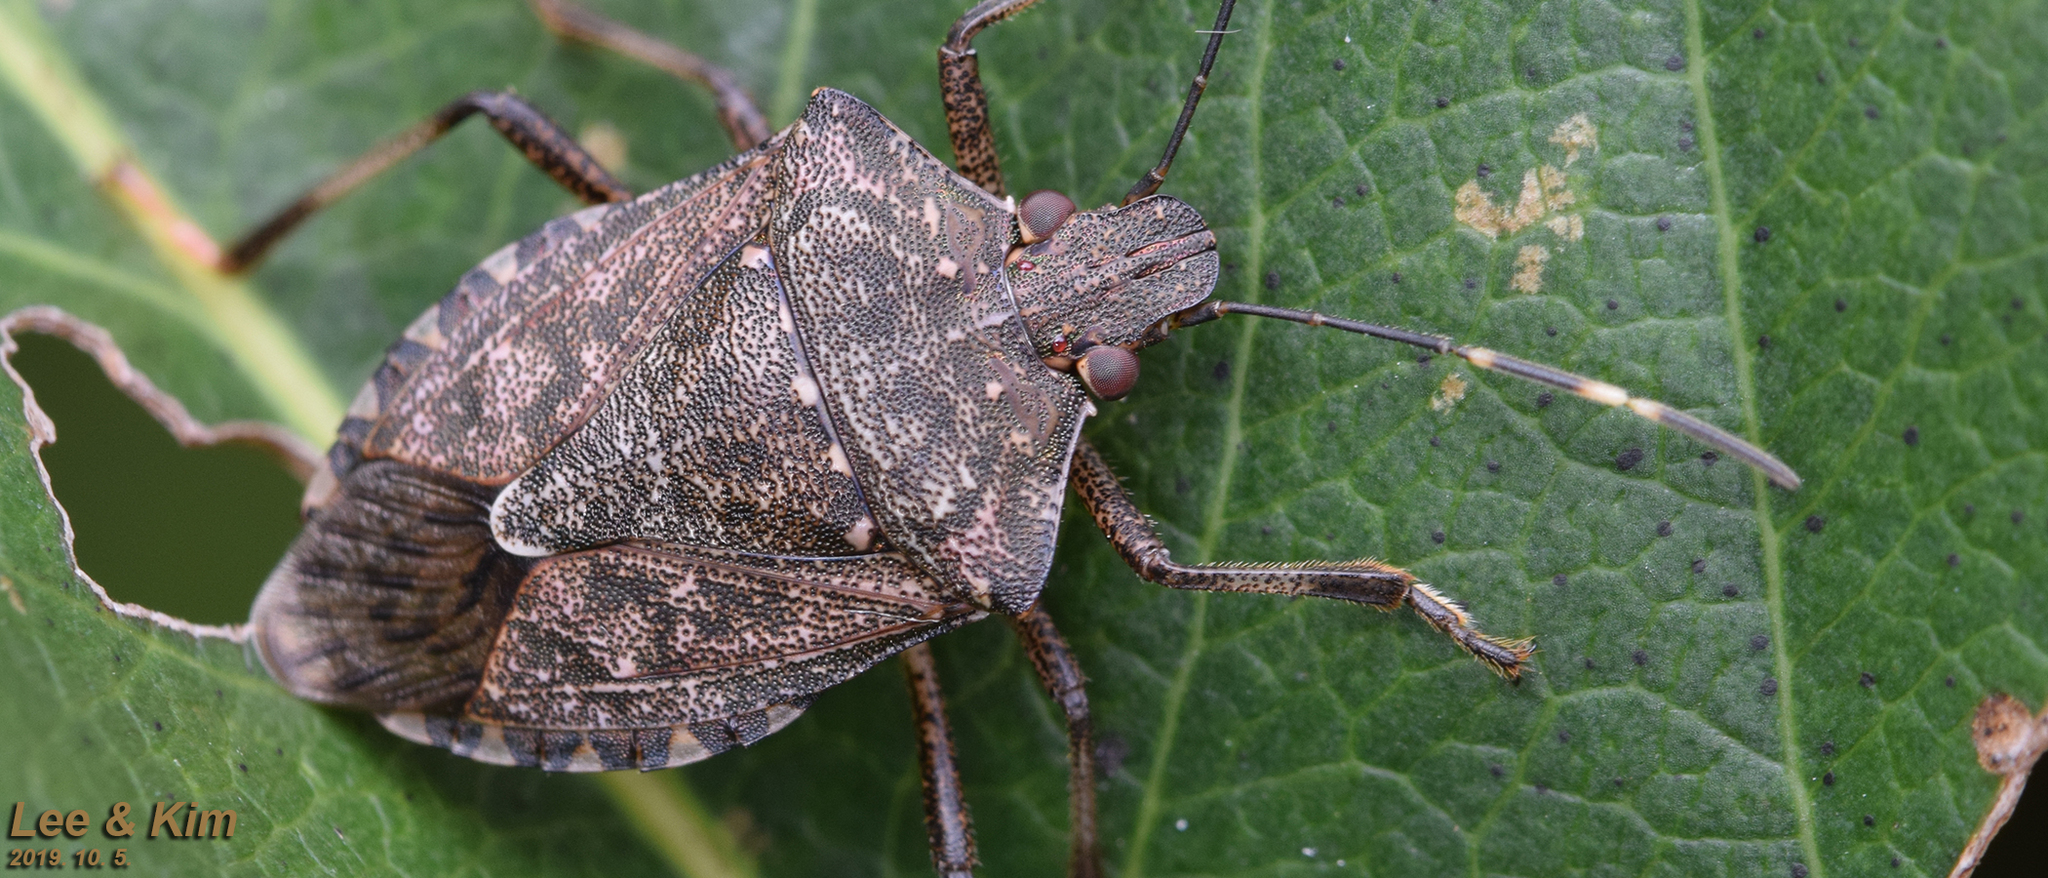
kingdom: Animalia
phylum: Arthropoda
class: Insecta
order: Hemiptera
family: Pentatomidae
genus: Halyomorpha
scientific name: Halyomorpha halys
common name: Brown marmorated stink bug
